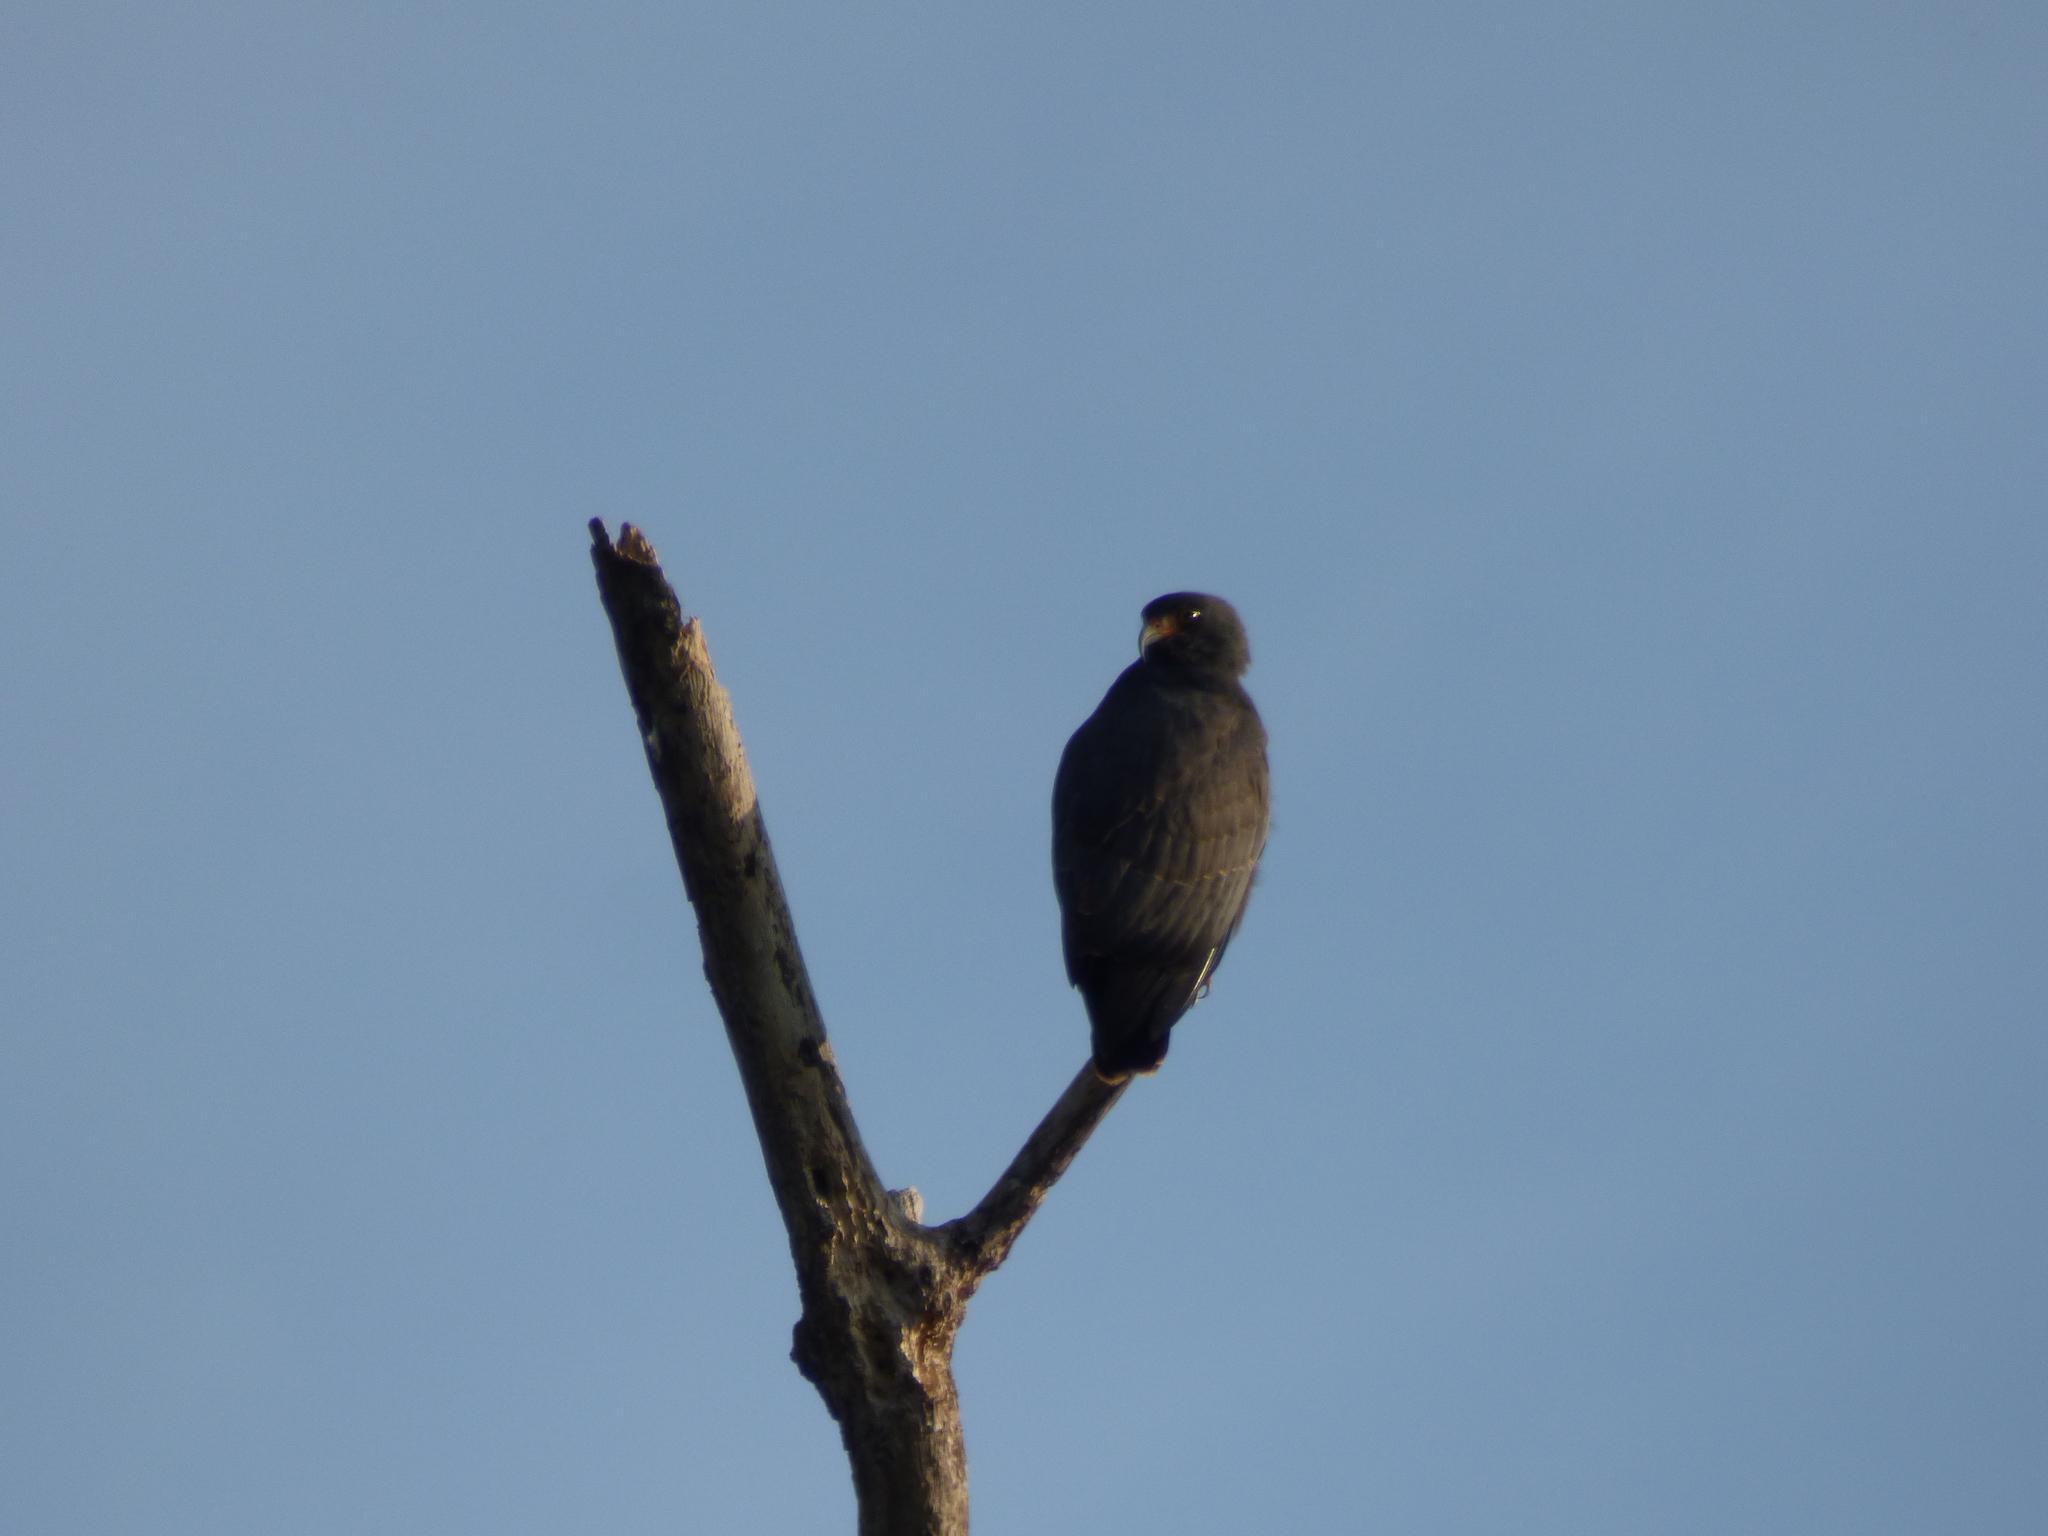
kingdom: Animalia
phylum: Chordata
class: Aves
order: Accipitriformes
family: Accipitridae
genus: Rostrhamus
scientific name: Rostrhamus sociabilis
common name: Snail kite
